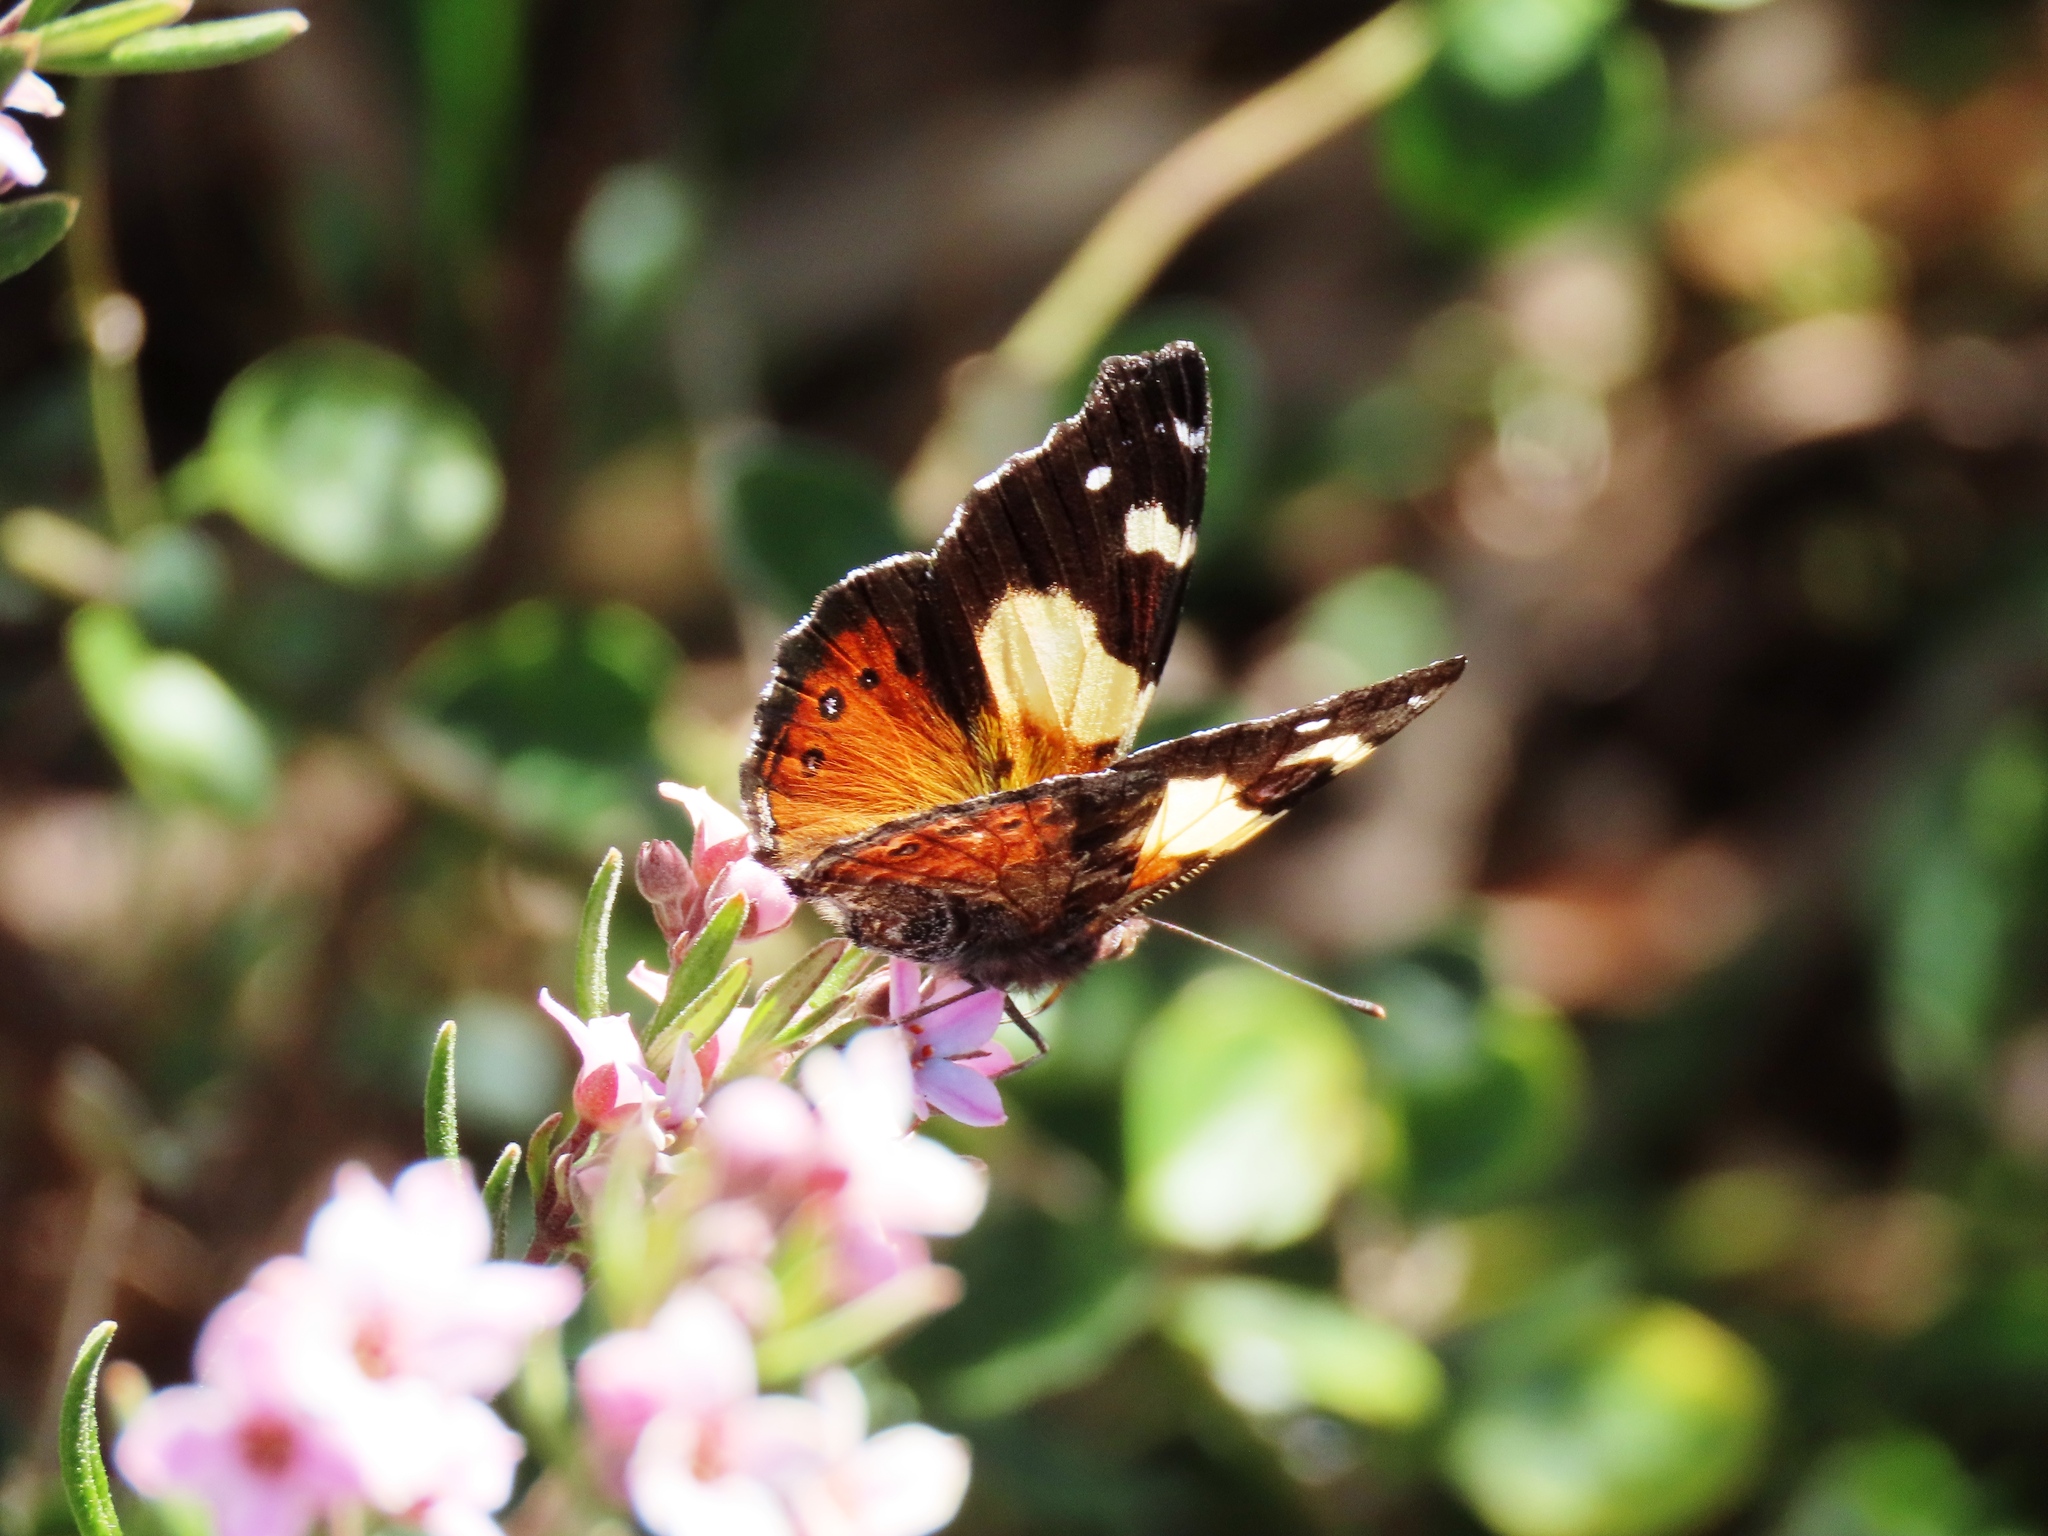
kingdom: Animalia
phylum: Arthropoda
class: Insecta
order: Lepidoptera
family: Nymphalidae
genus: Vanessa
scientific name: Vanessa itea
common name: Yellow admiral
